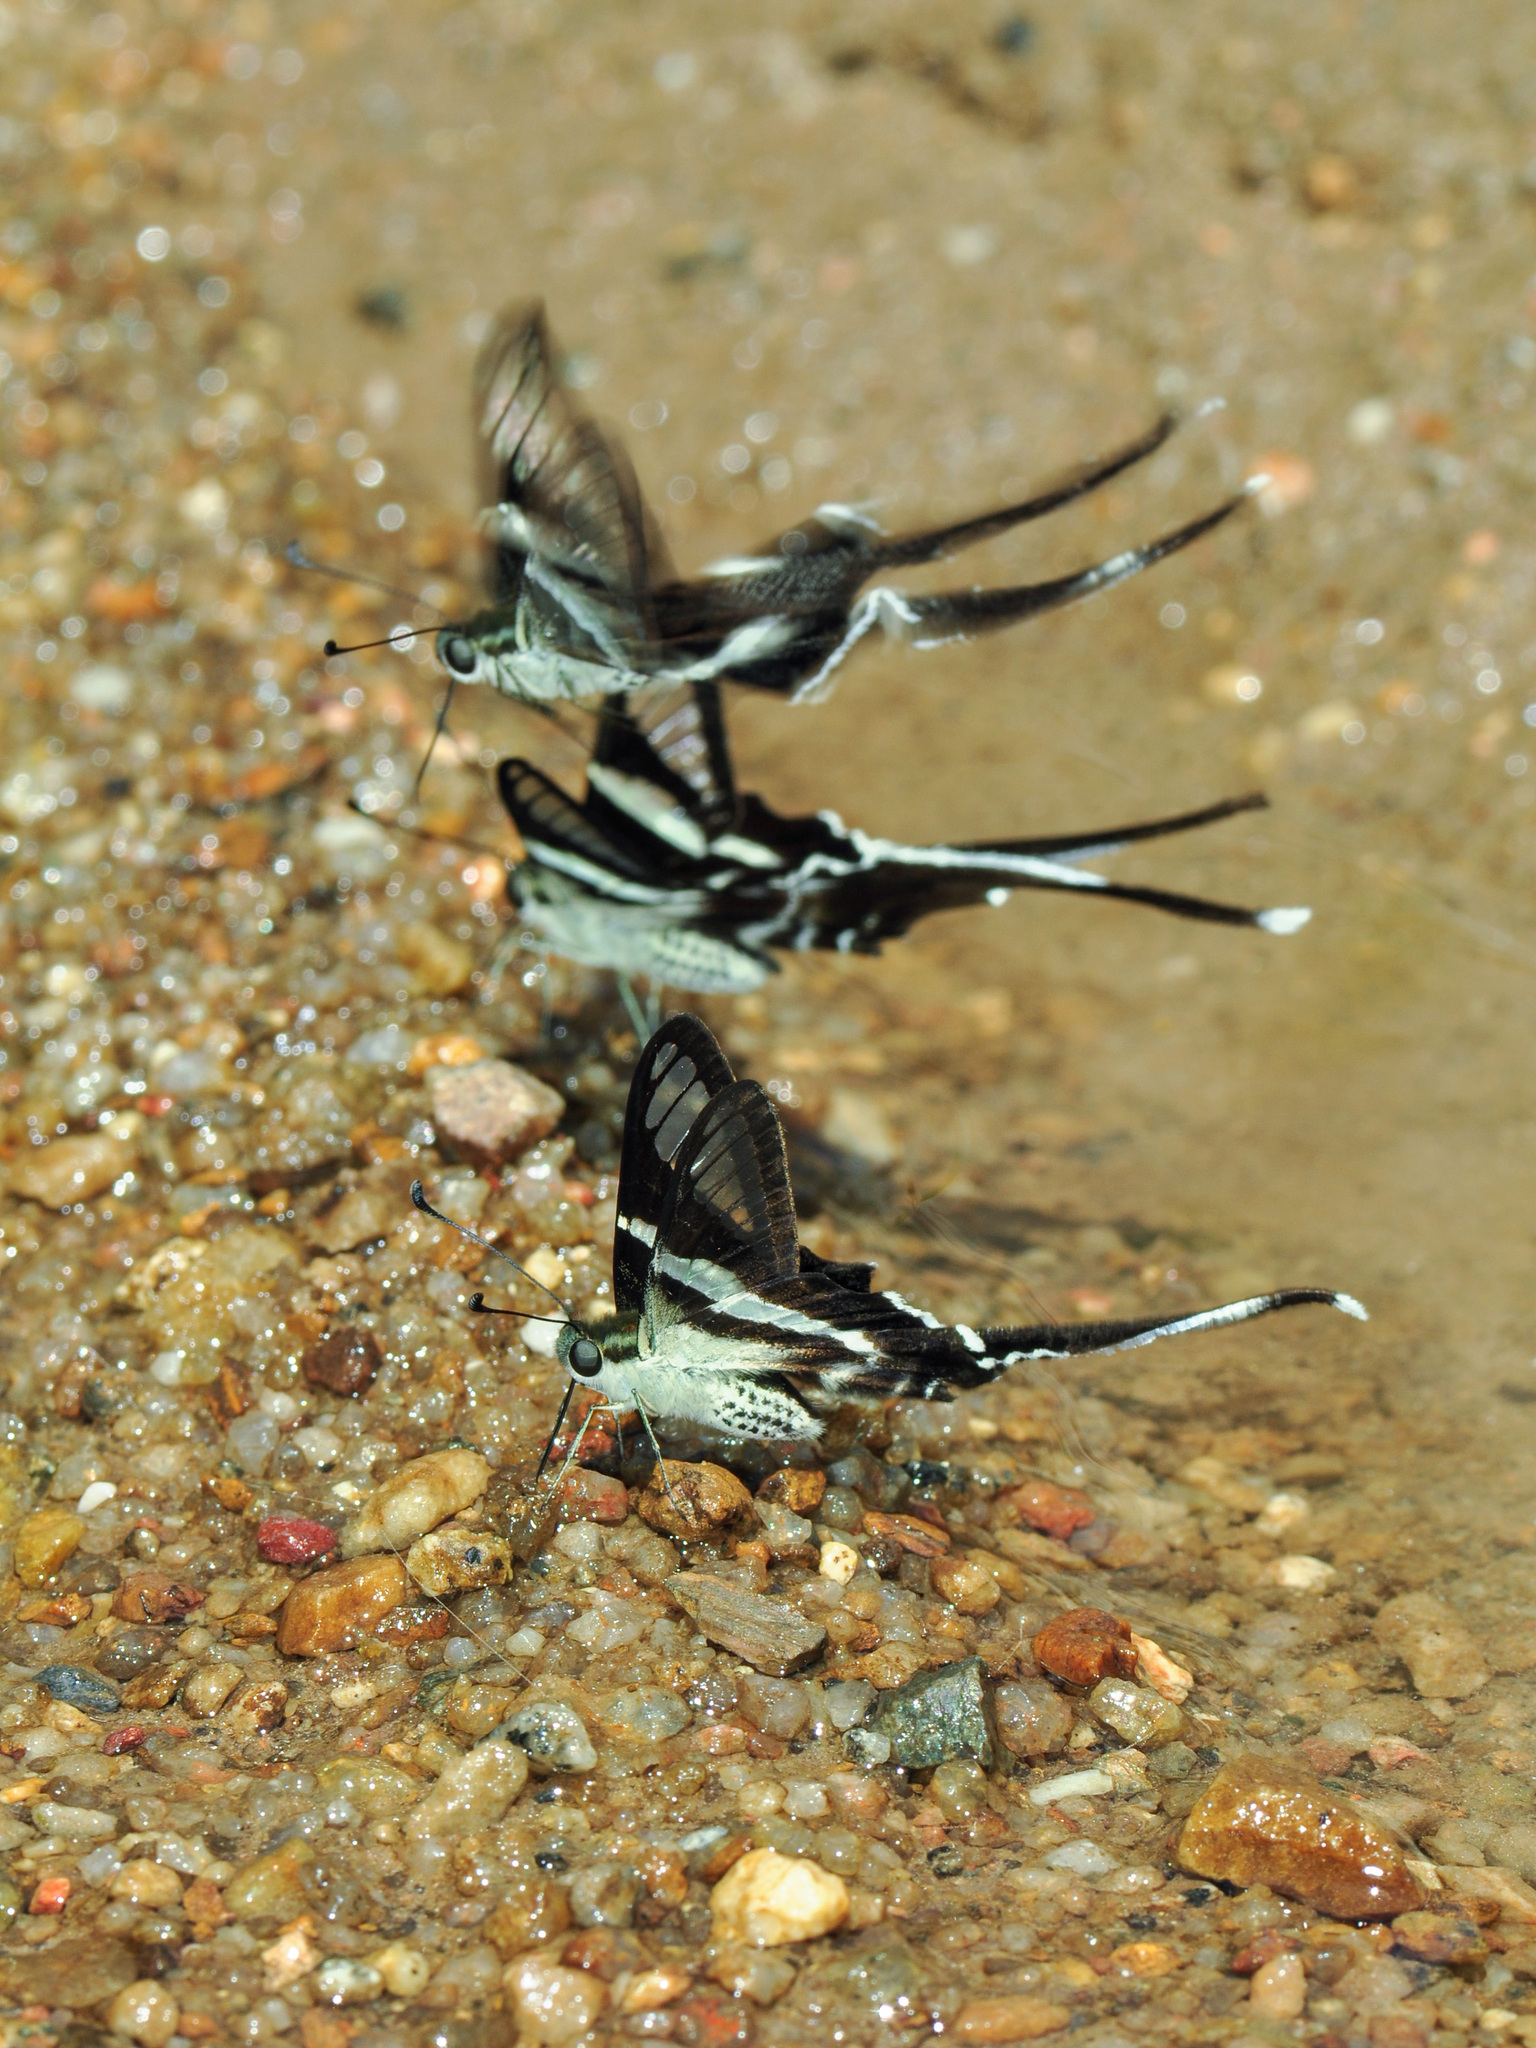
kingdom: Animalia
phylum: Arthropoda
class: Insecta
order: Lepidoptera
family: Papilionidae
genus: Lamproptera
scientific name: Lamproptera curius
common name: White dragontail
